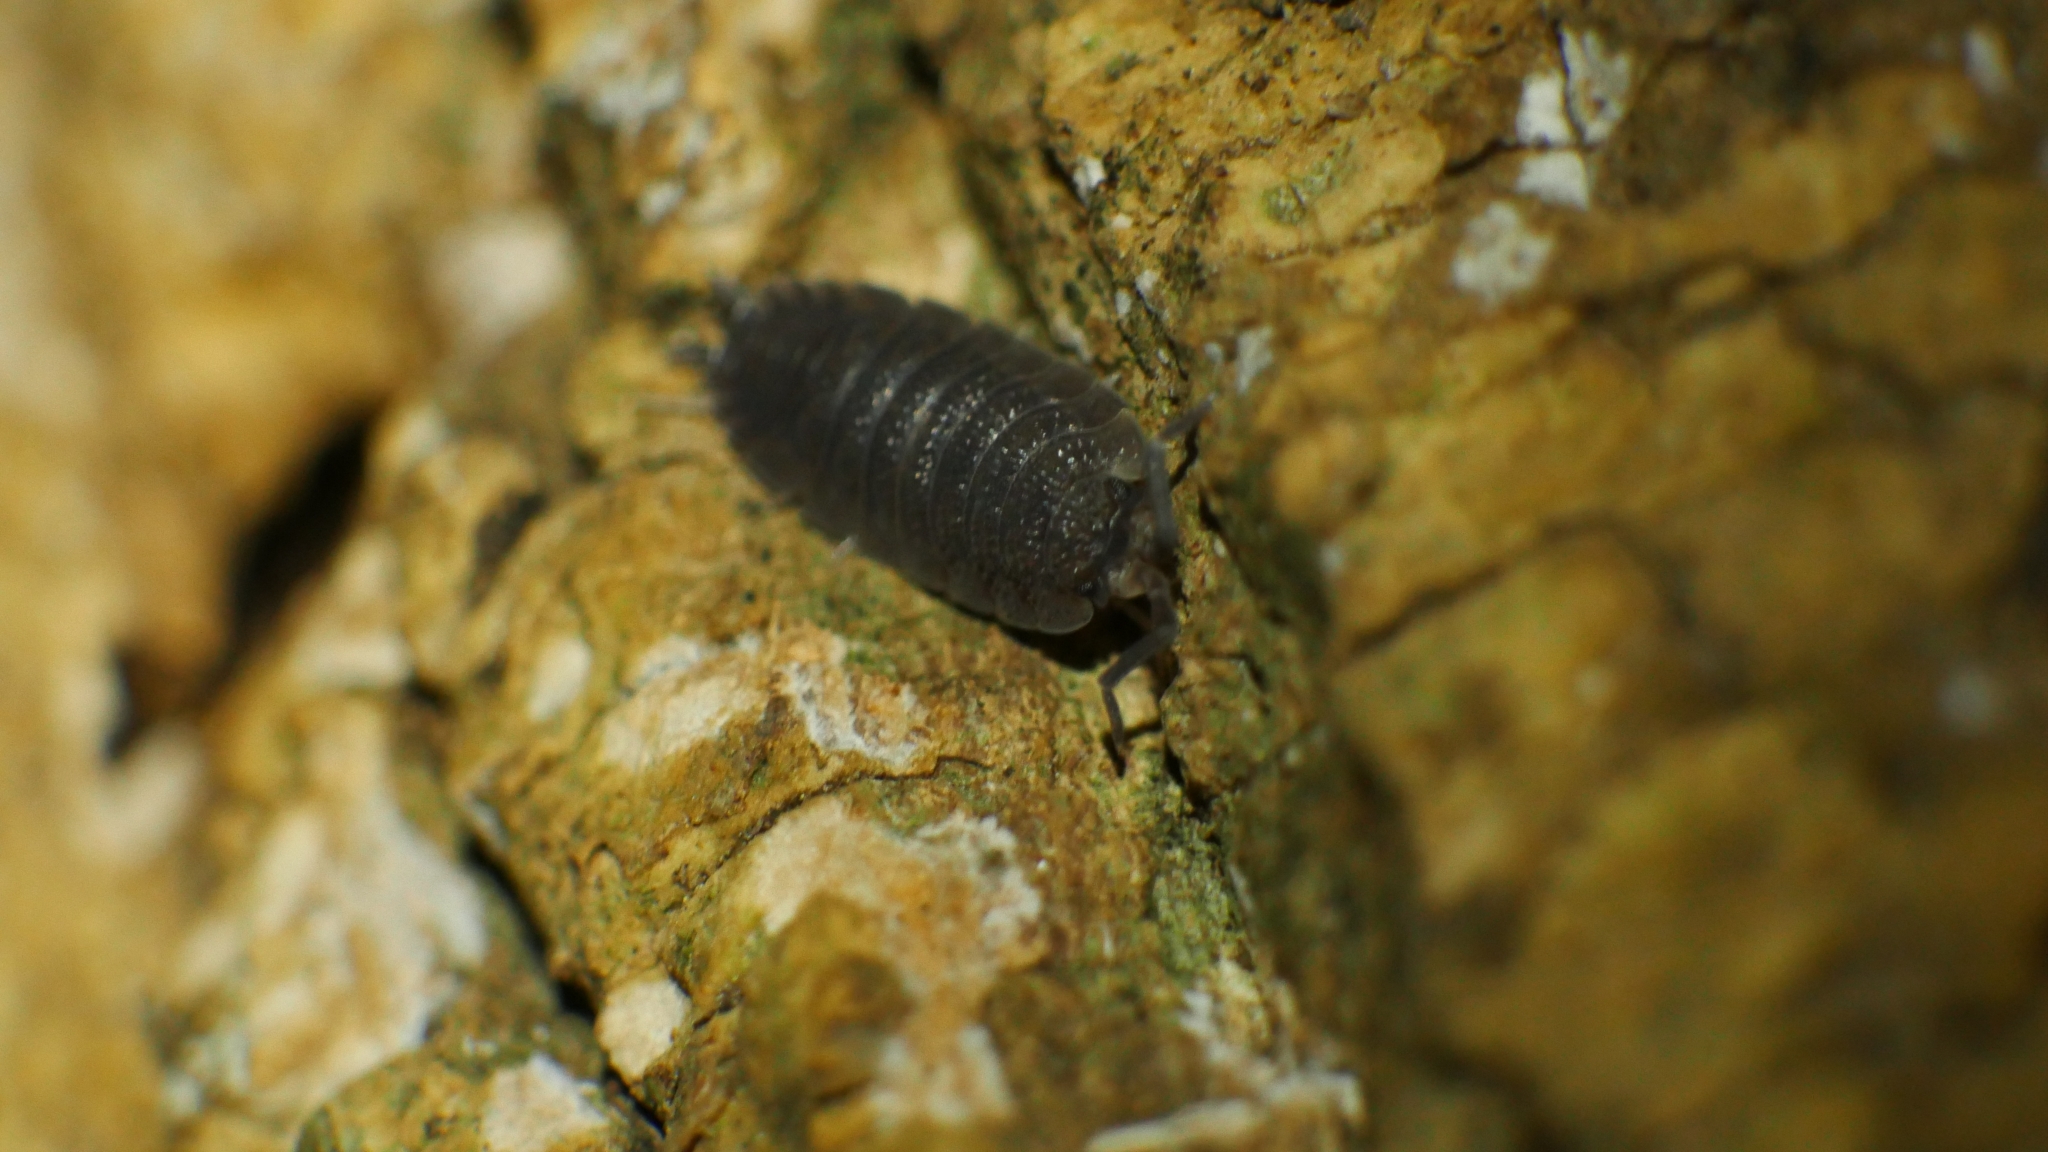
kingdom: Animalia
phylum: Arthropoda
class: Malacostraca
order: Isopoda
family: Porcellionidae
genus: Porcellio
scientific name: Porcellio scaber
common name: Common rough woodlouse
